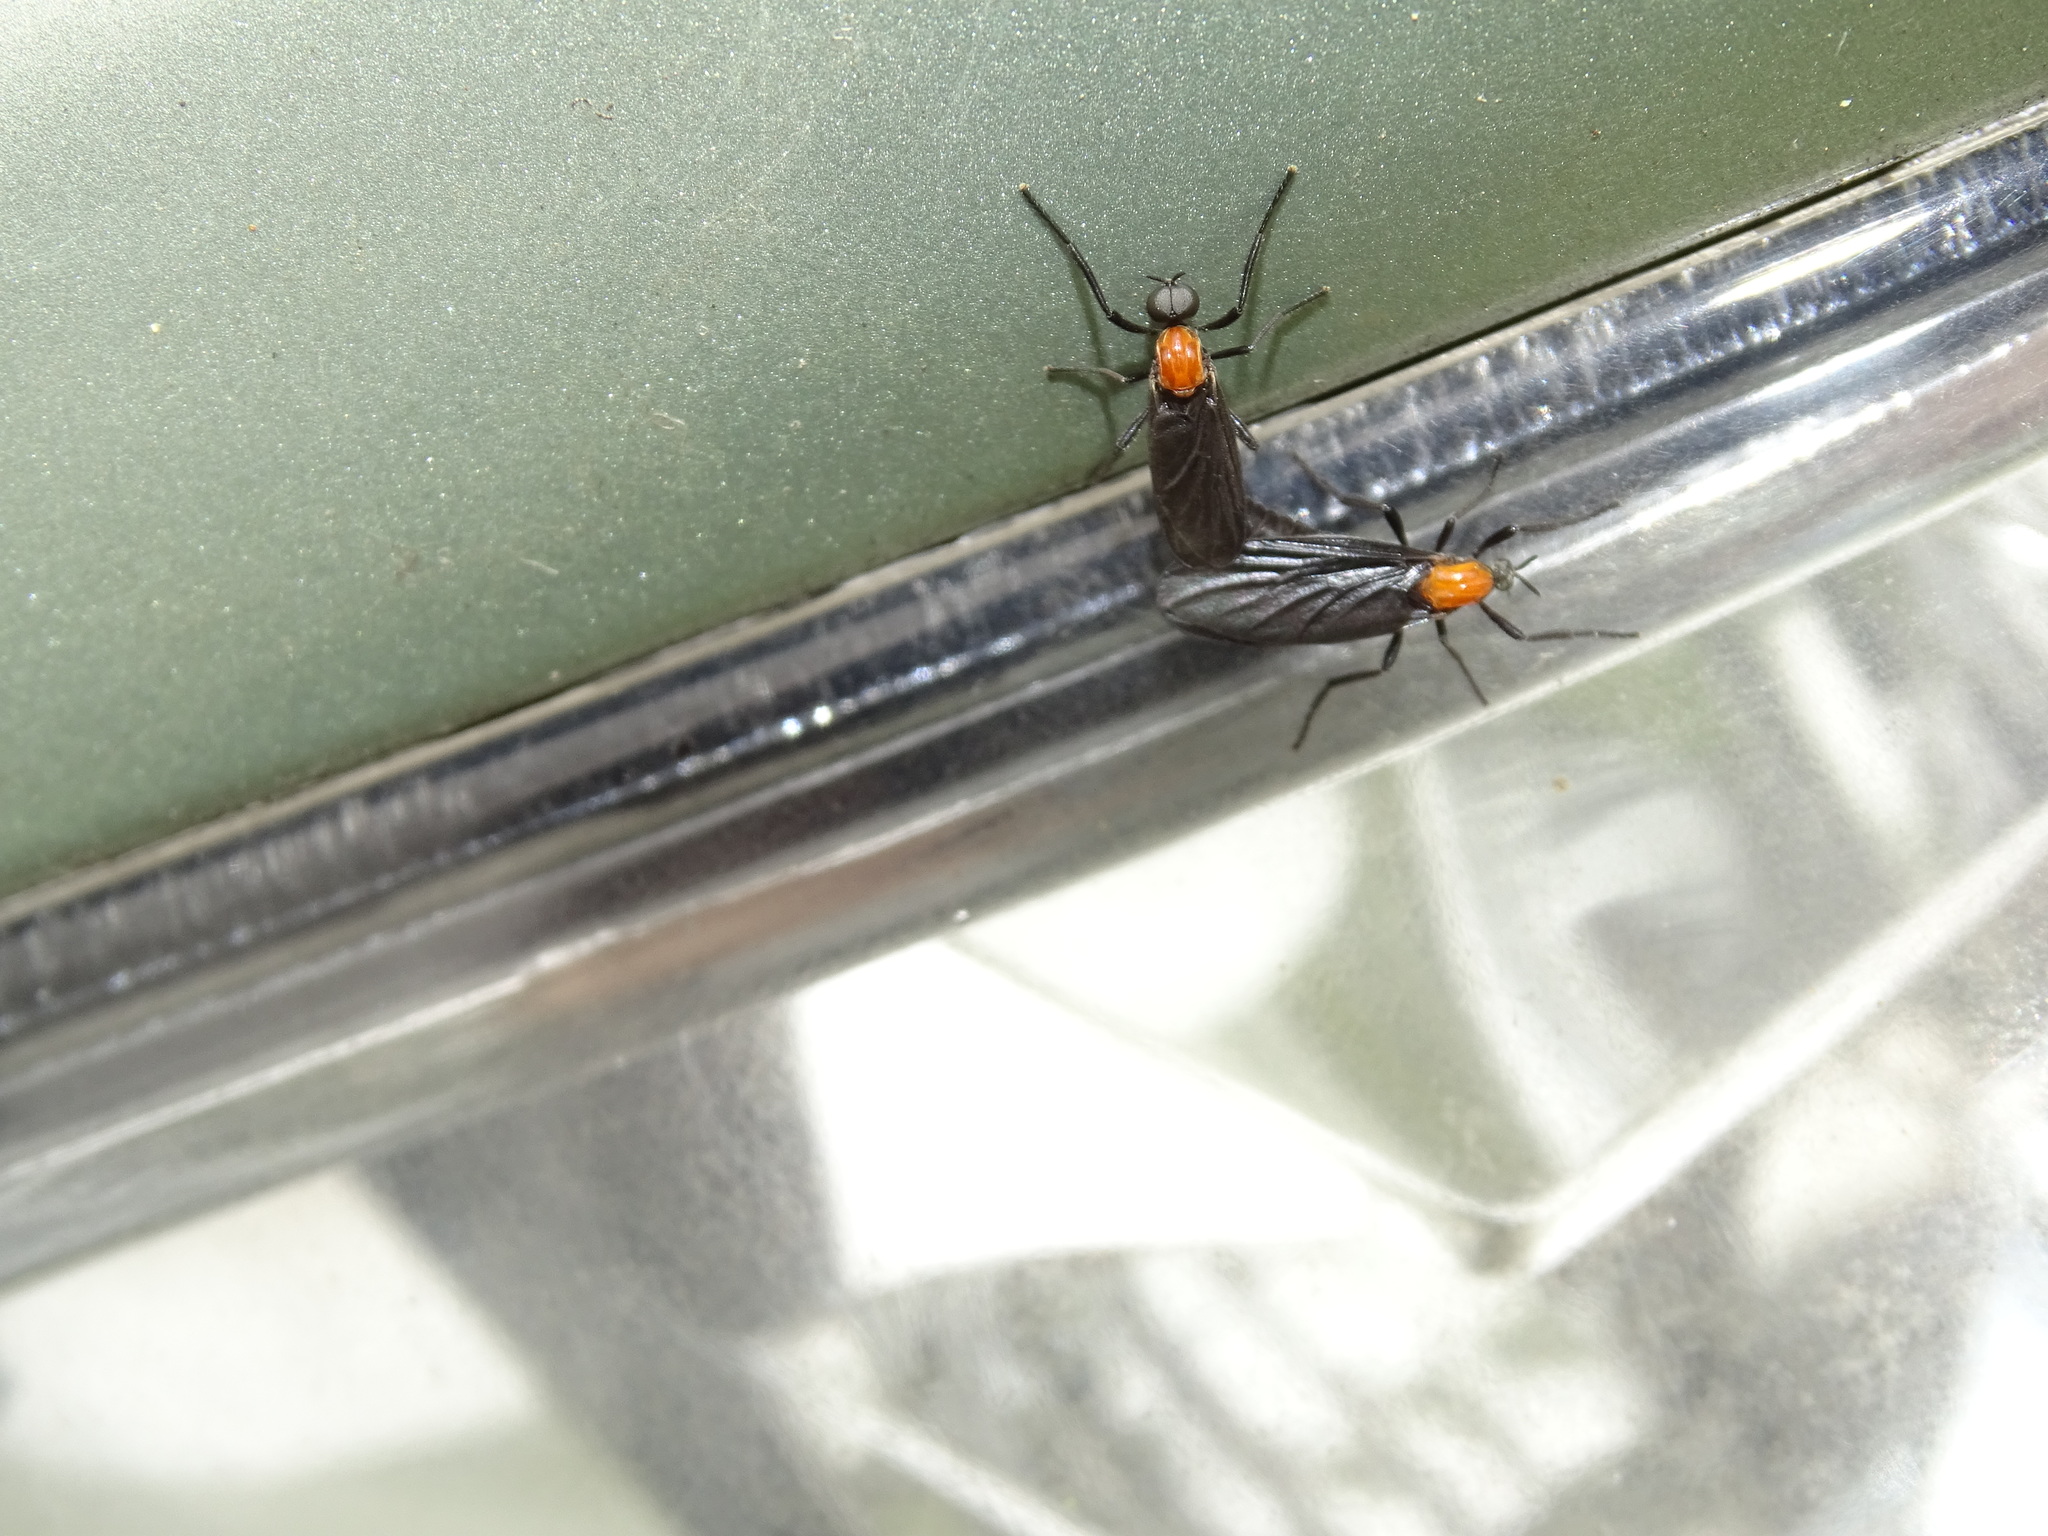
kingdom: Animalia
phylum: Arthropoda
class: Insecta
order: Diptera
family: Bibionidae
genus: Plecia
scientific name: Plecia nearctica
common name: March fly
